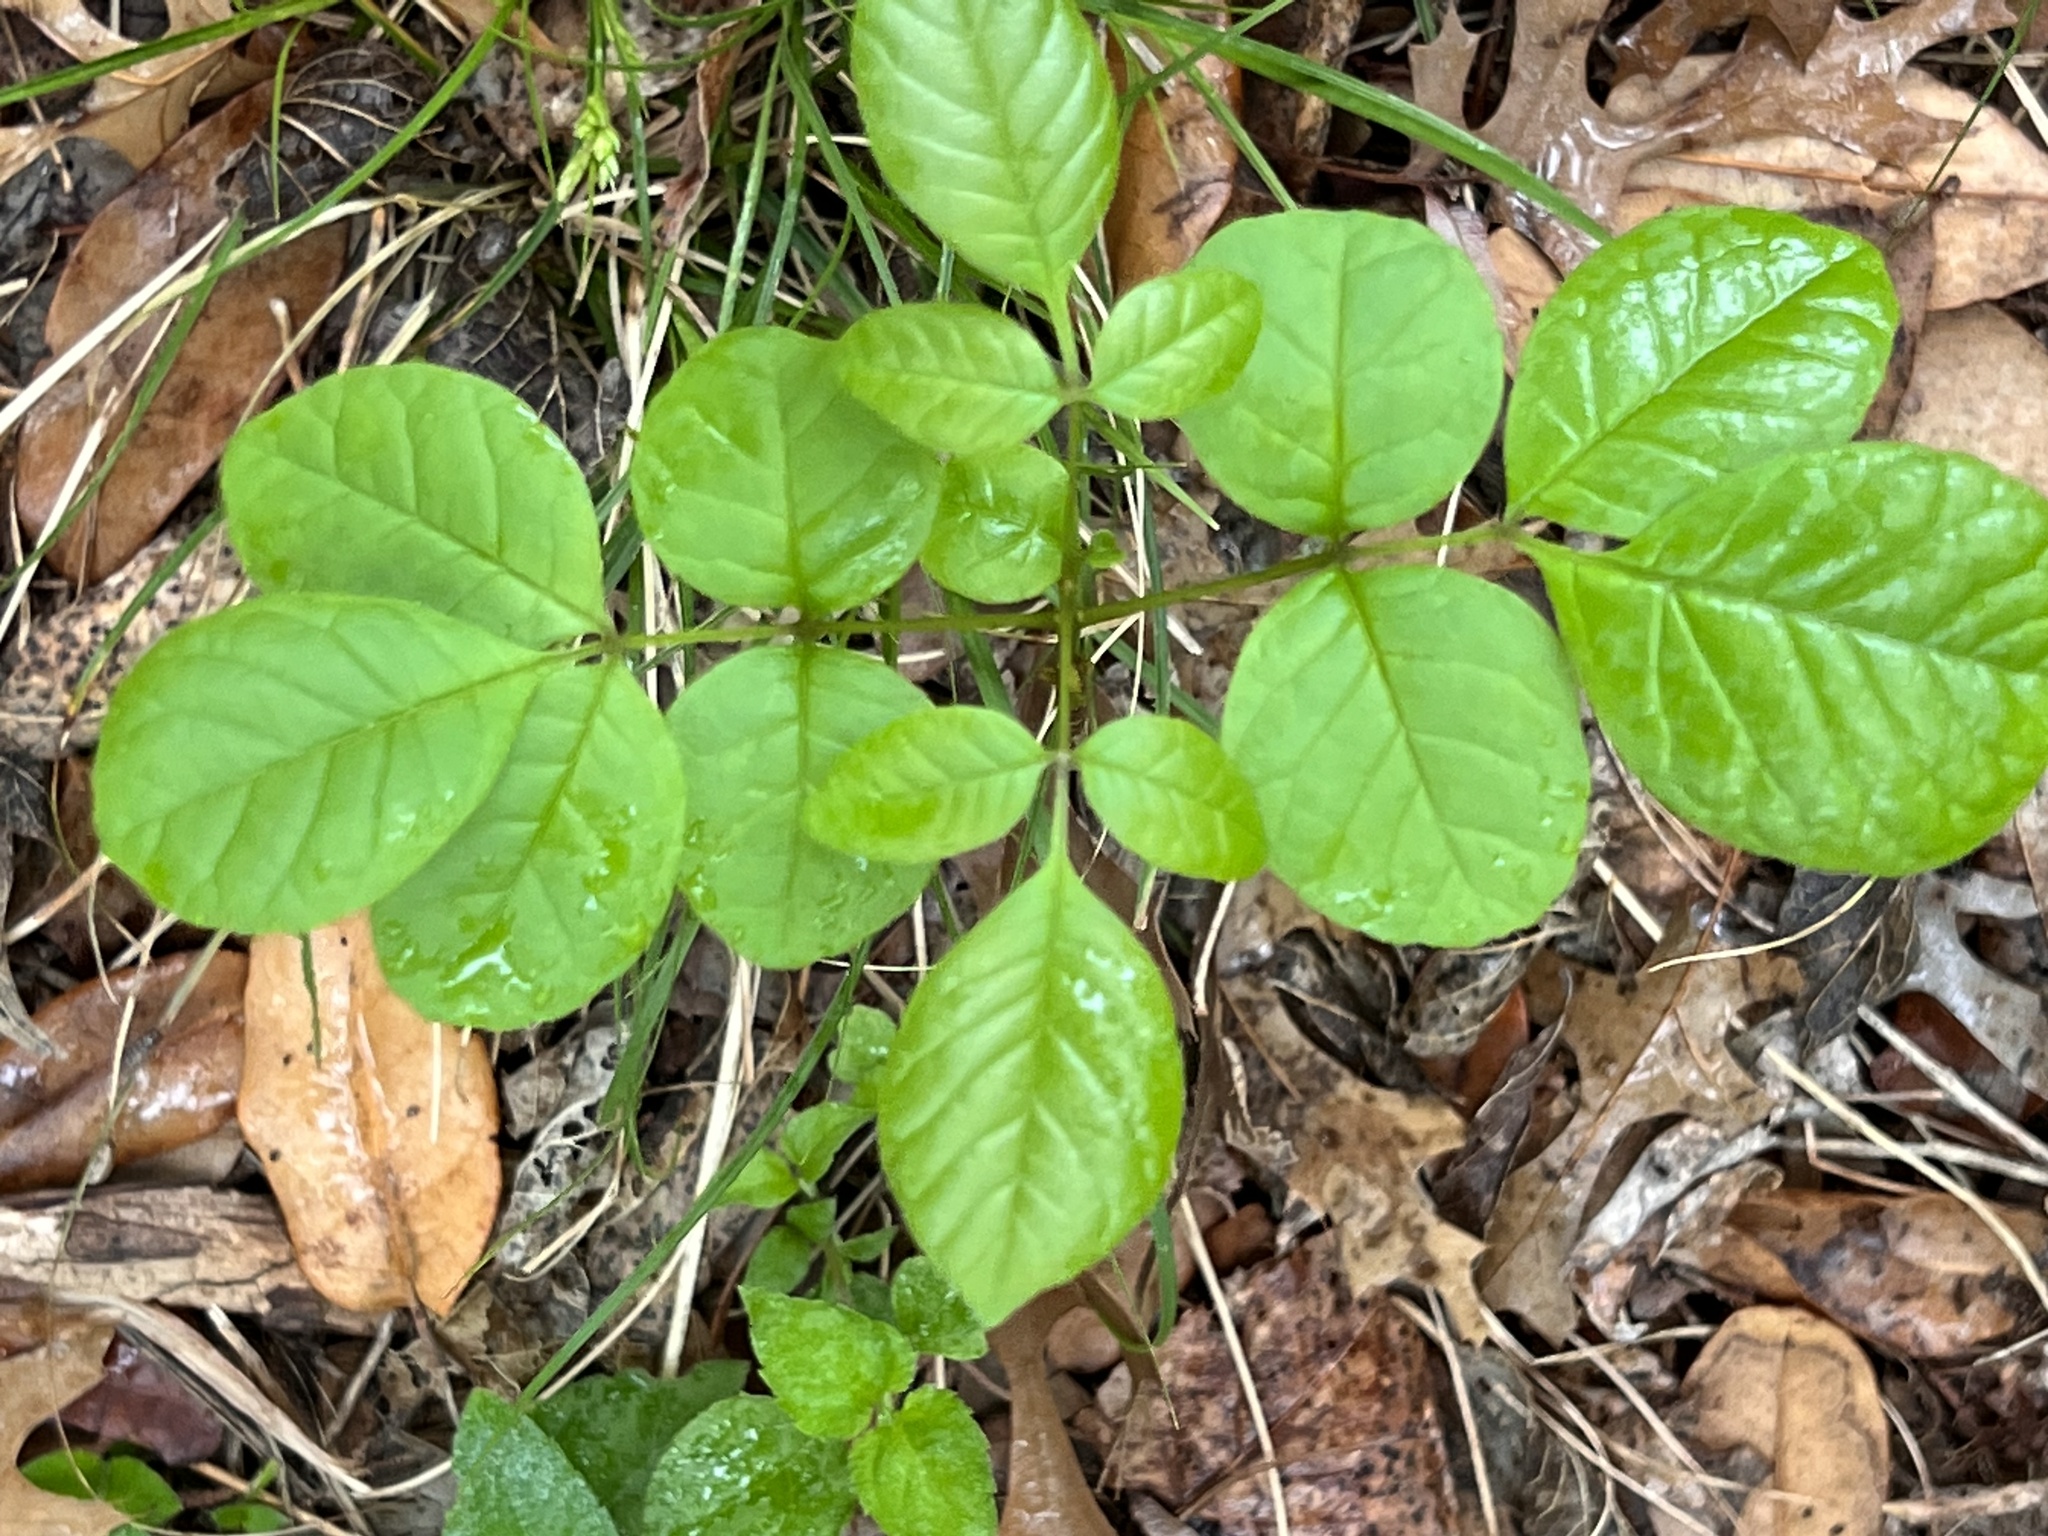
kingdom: Plantae
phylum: Tracheophyta
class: Magnoliopsida
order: Lamiales
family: Oleaceae
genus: Fraxinus
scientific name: Fraxinus albicans
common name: Texas ash
